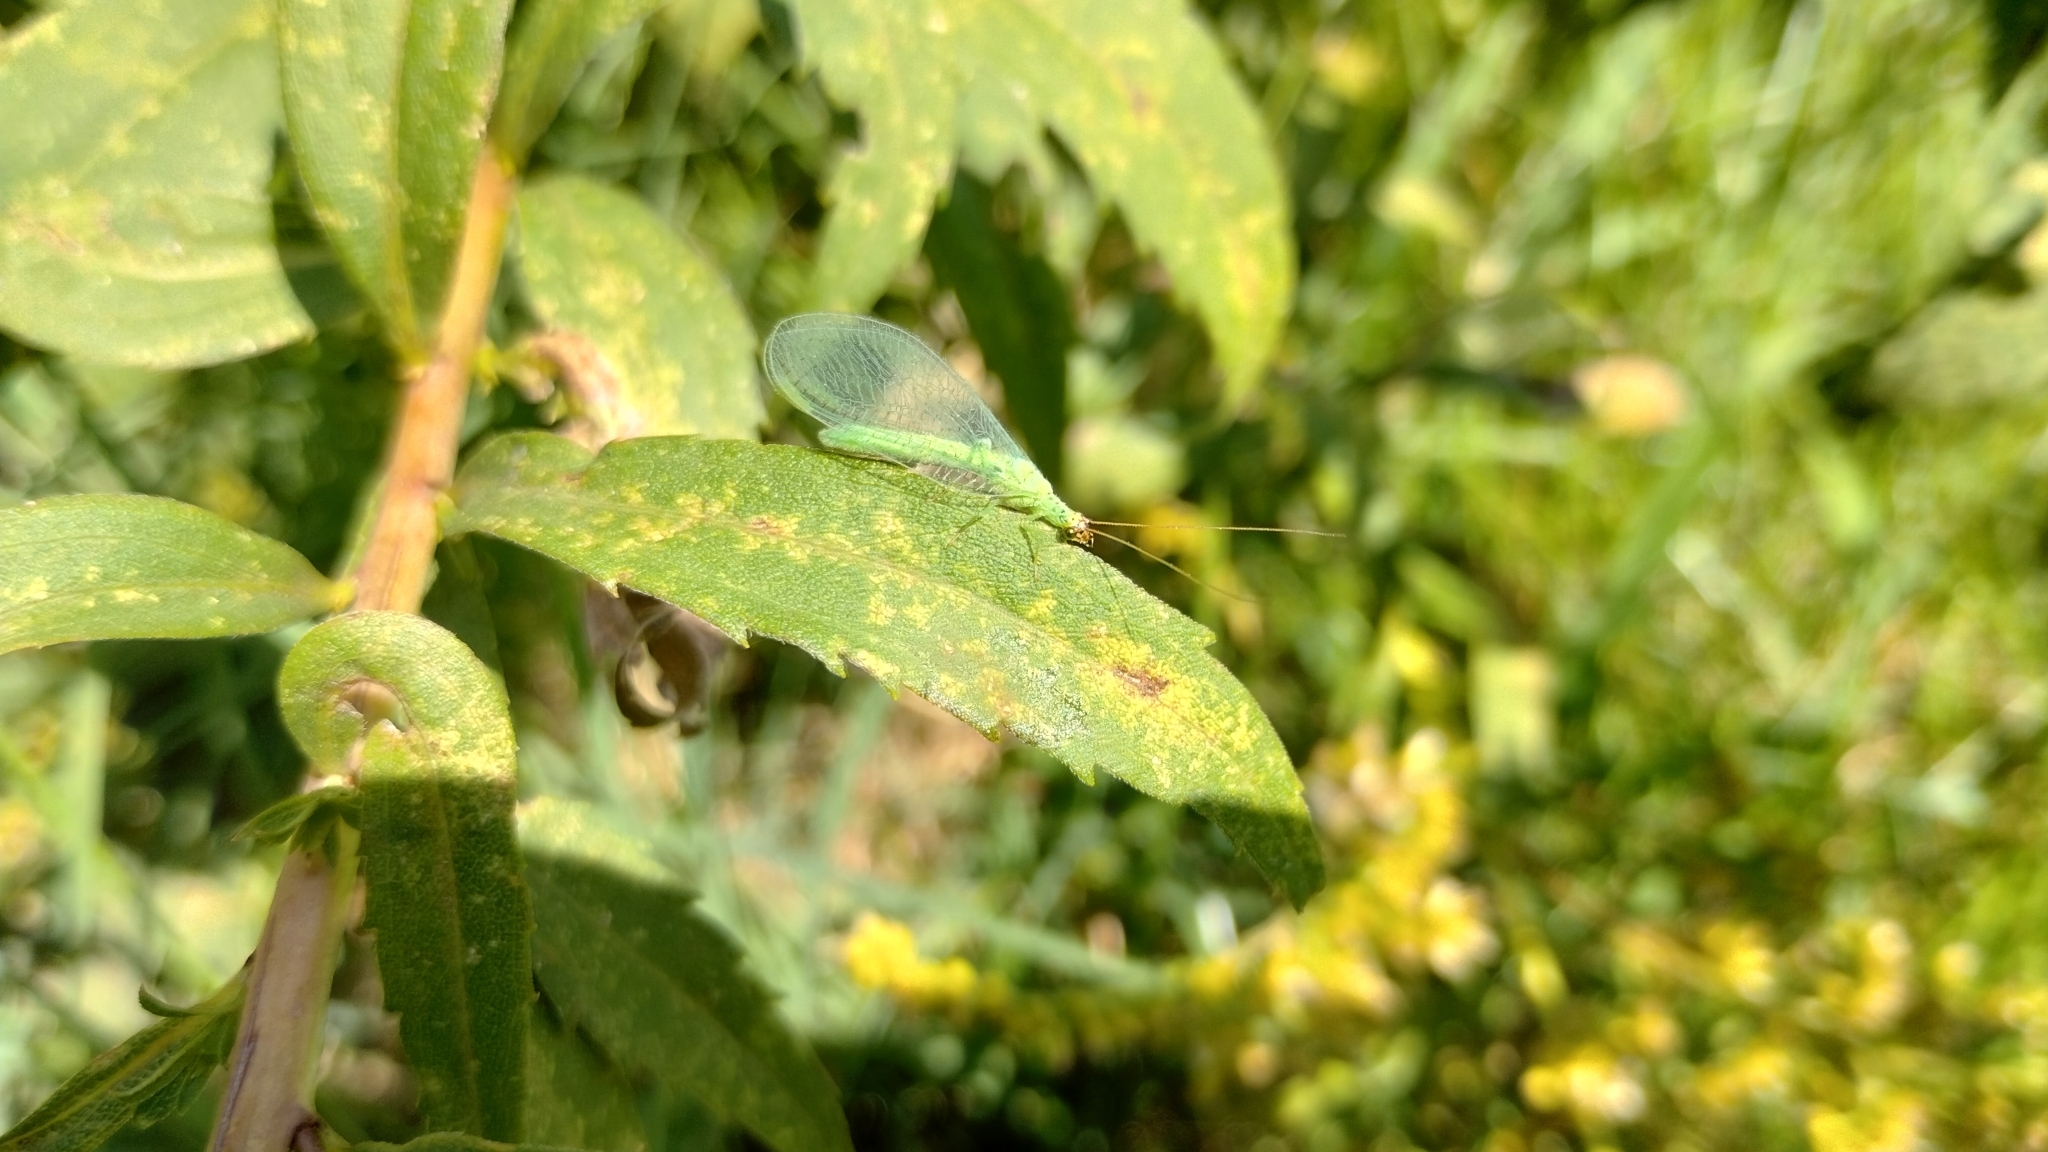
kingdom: Animalia
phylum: Arthropoda
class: Insecta
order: Neuroptera
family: Chrysopidae
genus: Chrysopa
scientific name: Chrysopa oculata
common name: Golden-eyed lacewing
